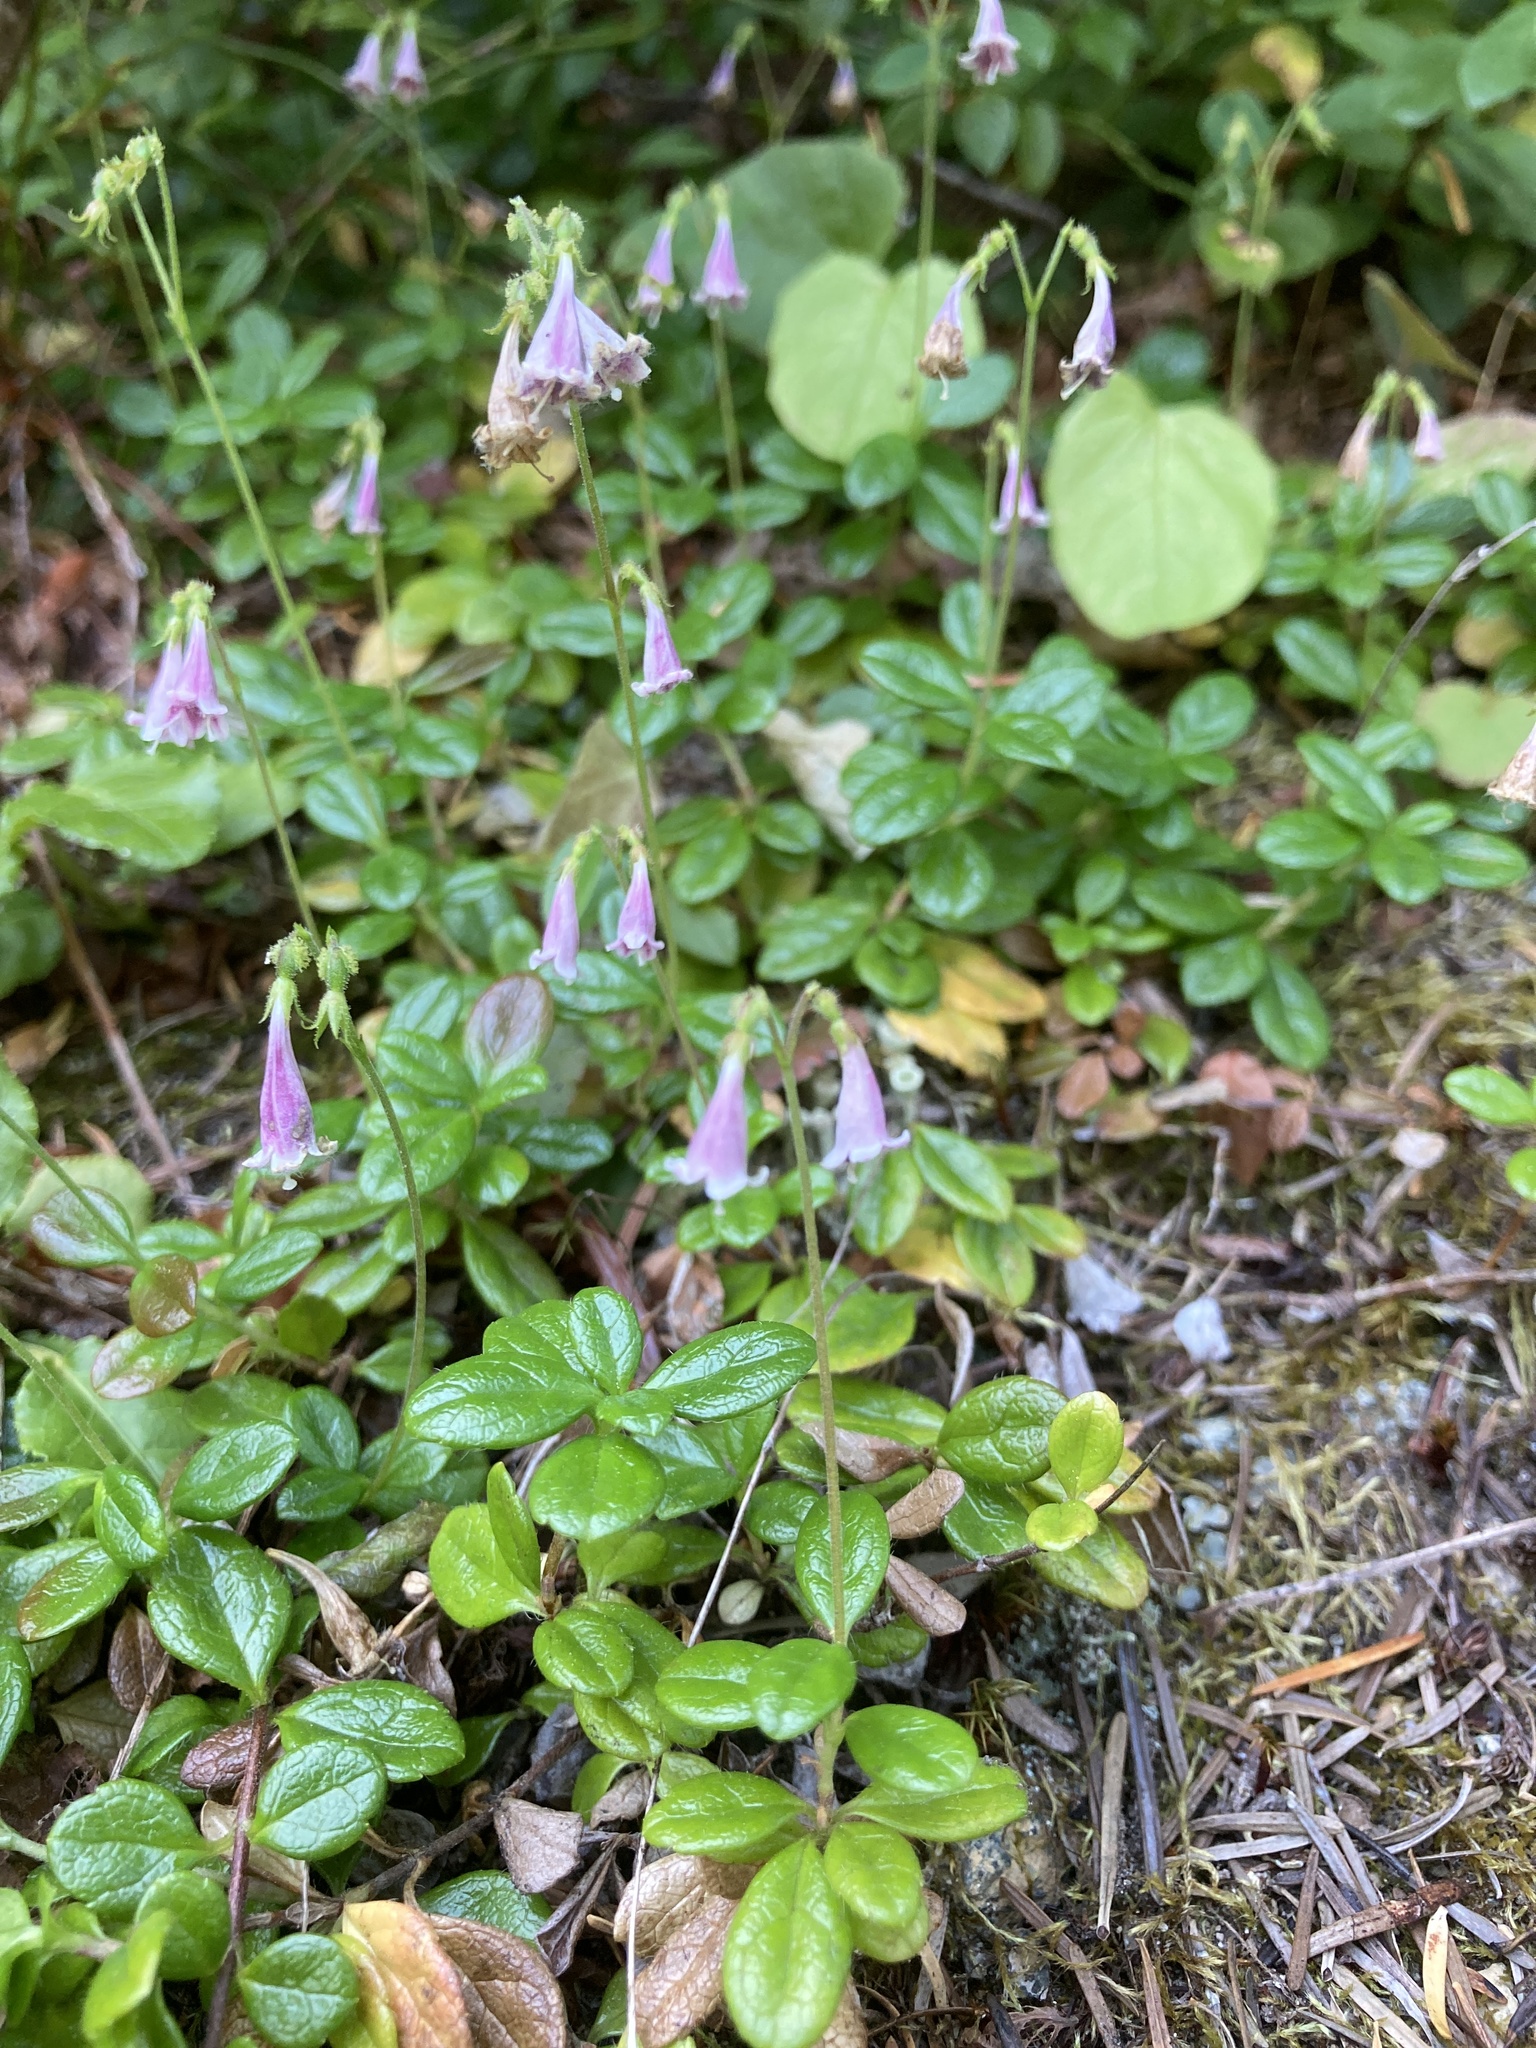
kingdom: Plantae
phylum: Tracheophyta
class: Magnoliopsida
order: Dipsacales
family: Caprifoliaceae
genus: Linnaea
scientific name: Linnaea borealis
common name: Twinflower
